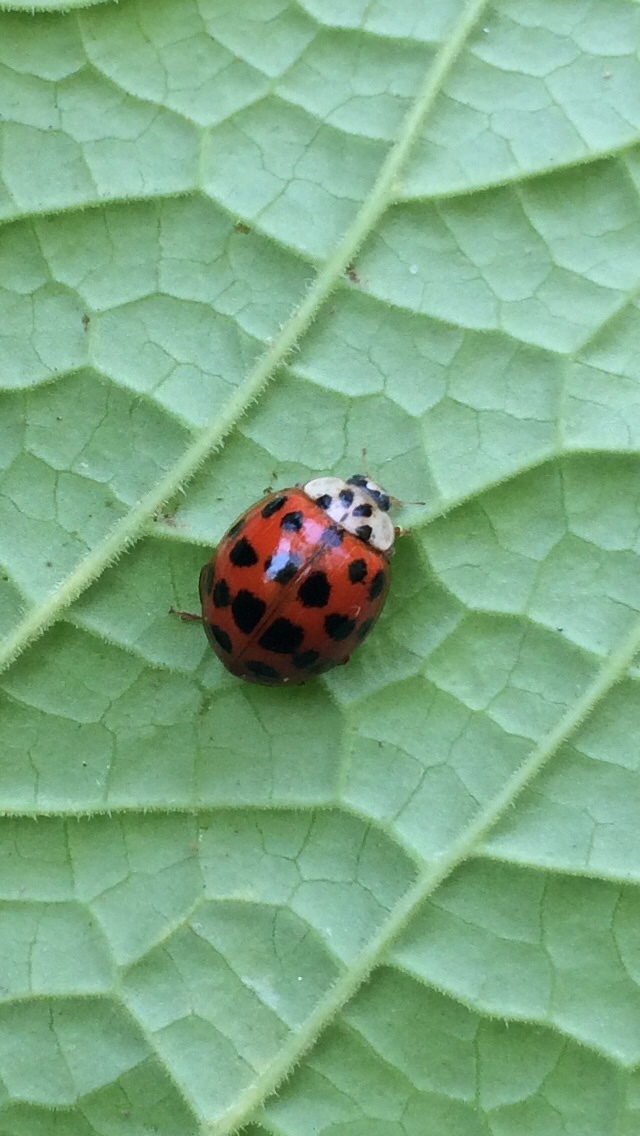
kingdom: Animalia
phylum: Arthropoda
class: Insecta
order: Coleoptera
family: Coccinellidae
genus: Harmonia
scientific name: Harmonia axyridis
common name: Harlequin ladybird
